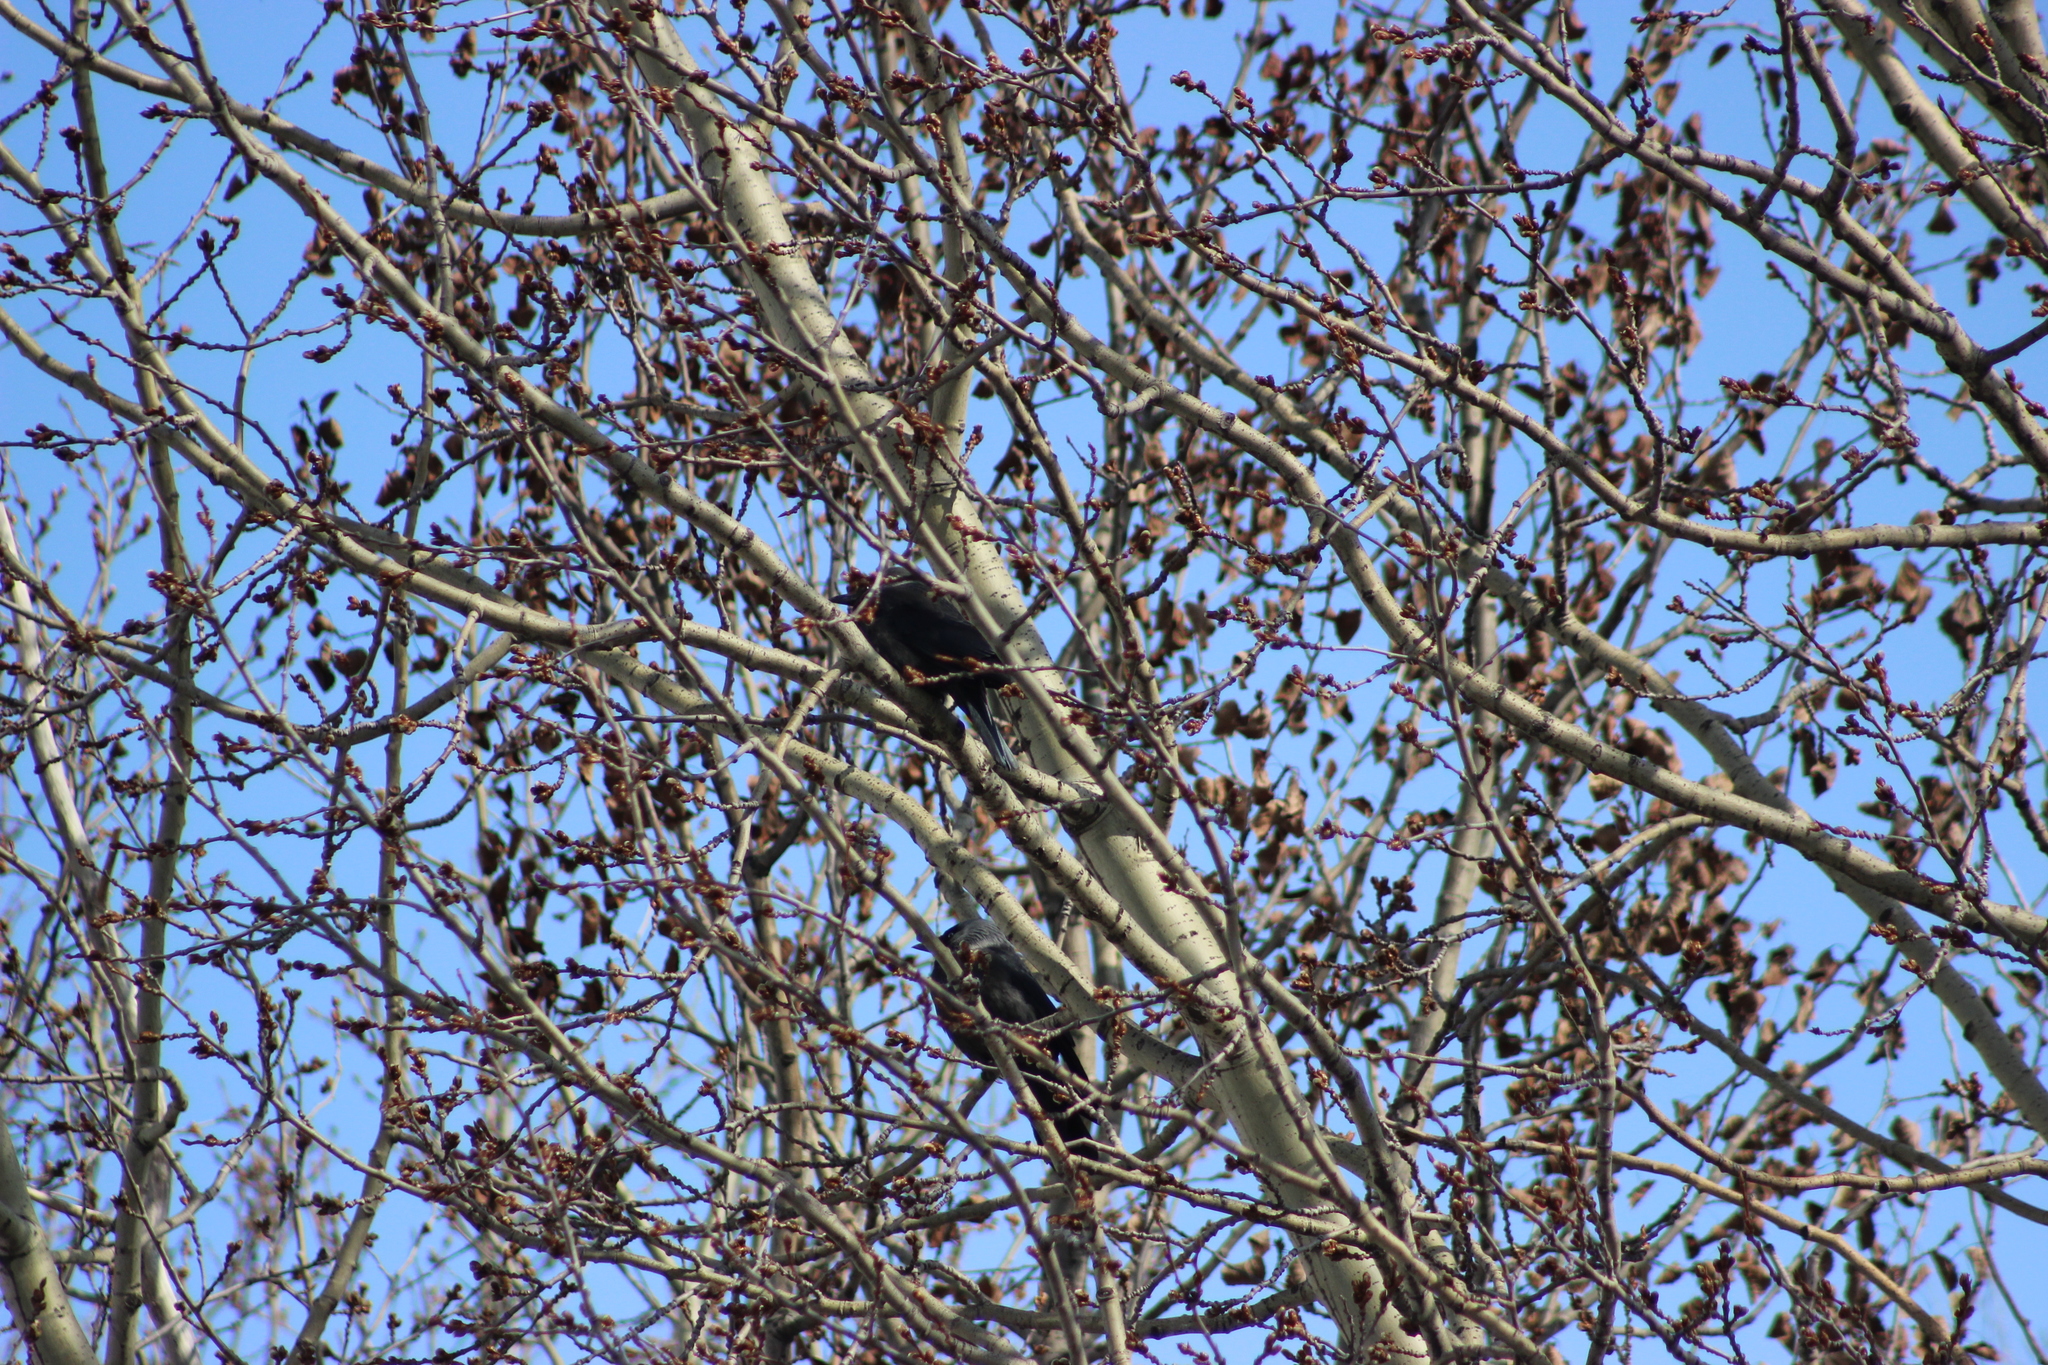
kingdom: Animalia
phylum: Chordata
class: Aves
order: Passeriformes
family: Corvidae
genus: Coloeus
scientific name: Coloeus monedula
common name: Western jackdaw
